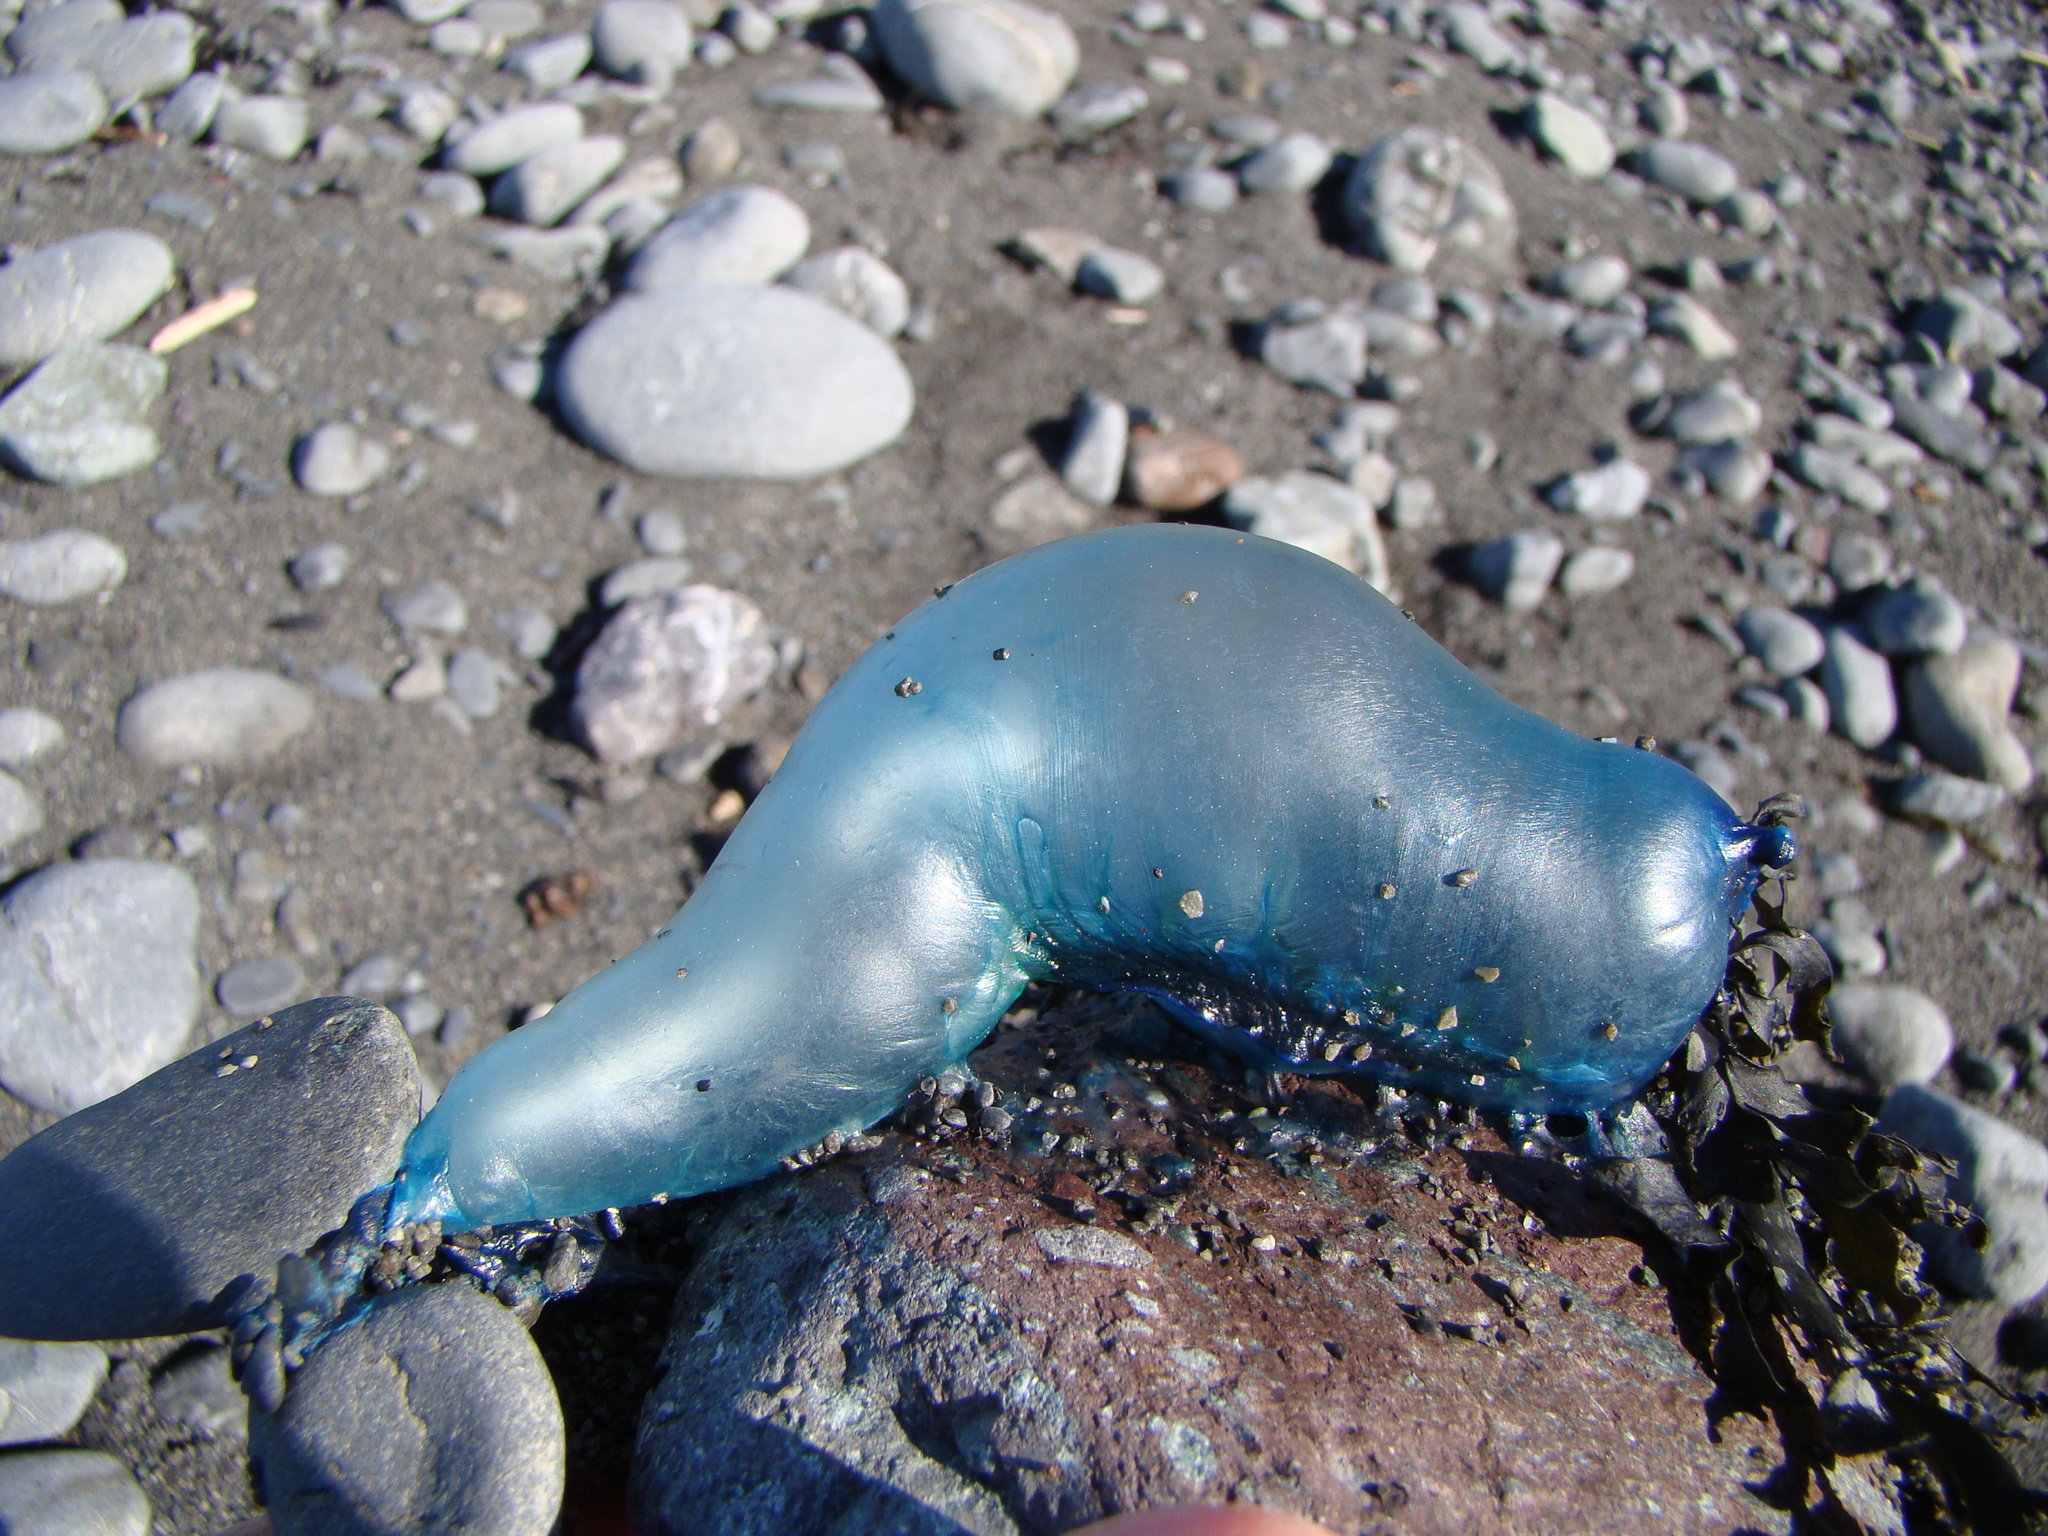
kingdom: Animalia
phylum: Cnidaria
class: Hydrozoa
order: Siphonophorae
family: Physaliidae
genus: Physalia
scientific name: Physalia physalis
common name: Portuguese man-of-war
